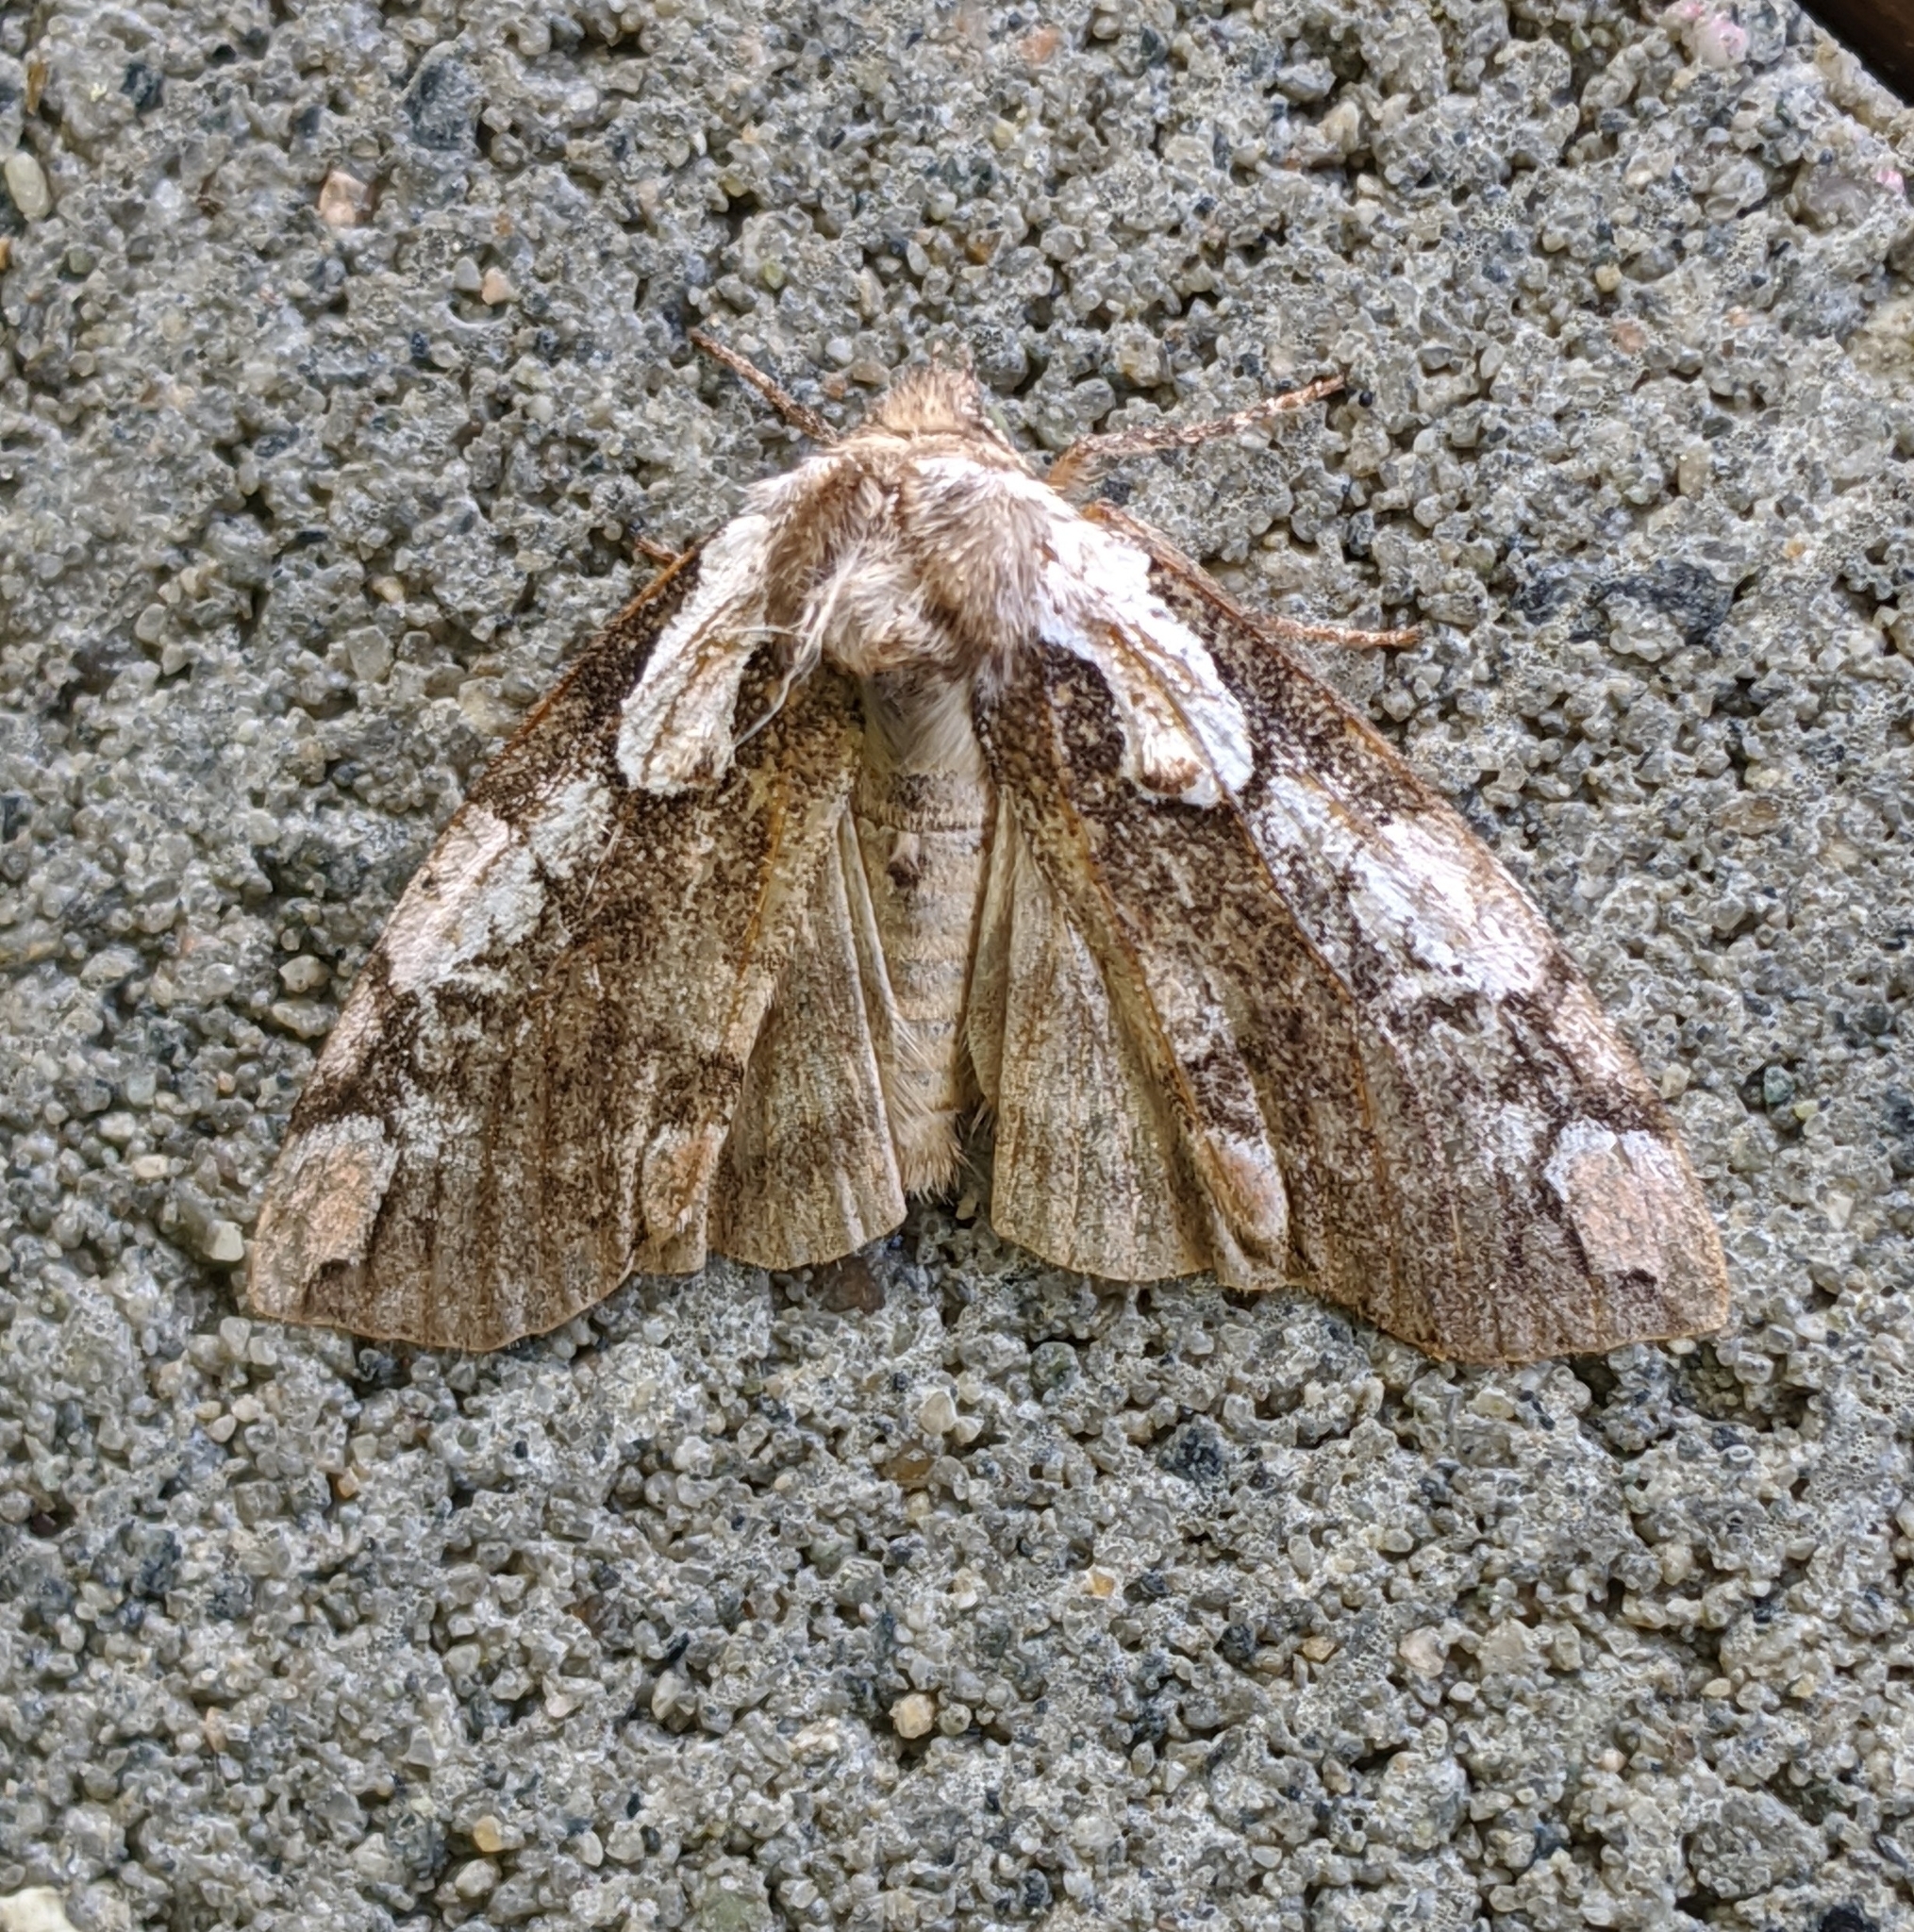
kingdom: Animalia
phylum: Arthropoda
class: Insecta
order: Lepidoptera
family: Drepanidae
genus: Euthyatira
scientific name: Euthyatira pudens
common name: Dogwood thyatirid moth
